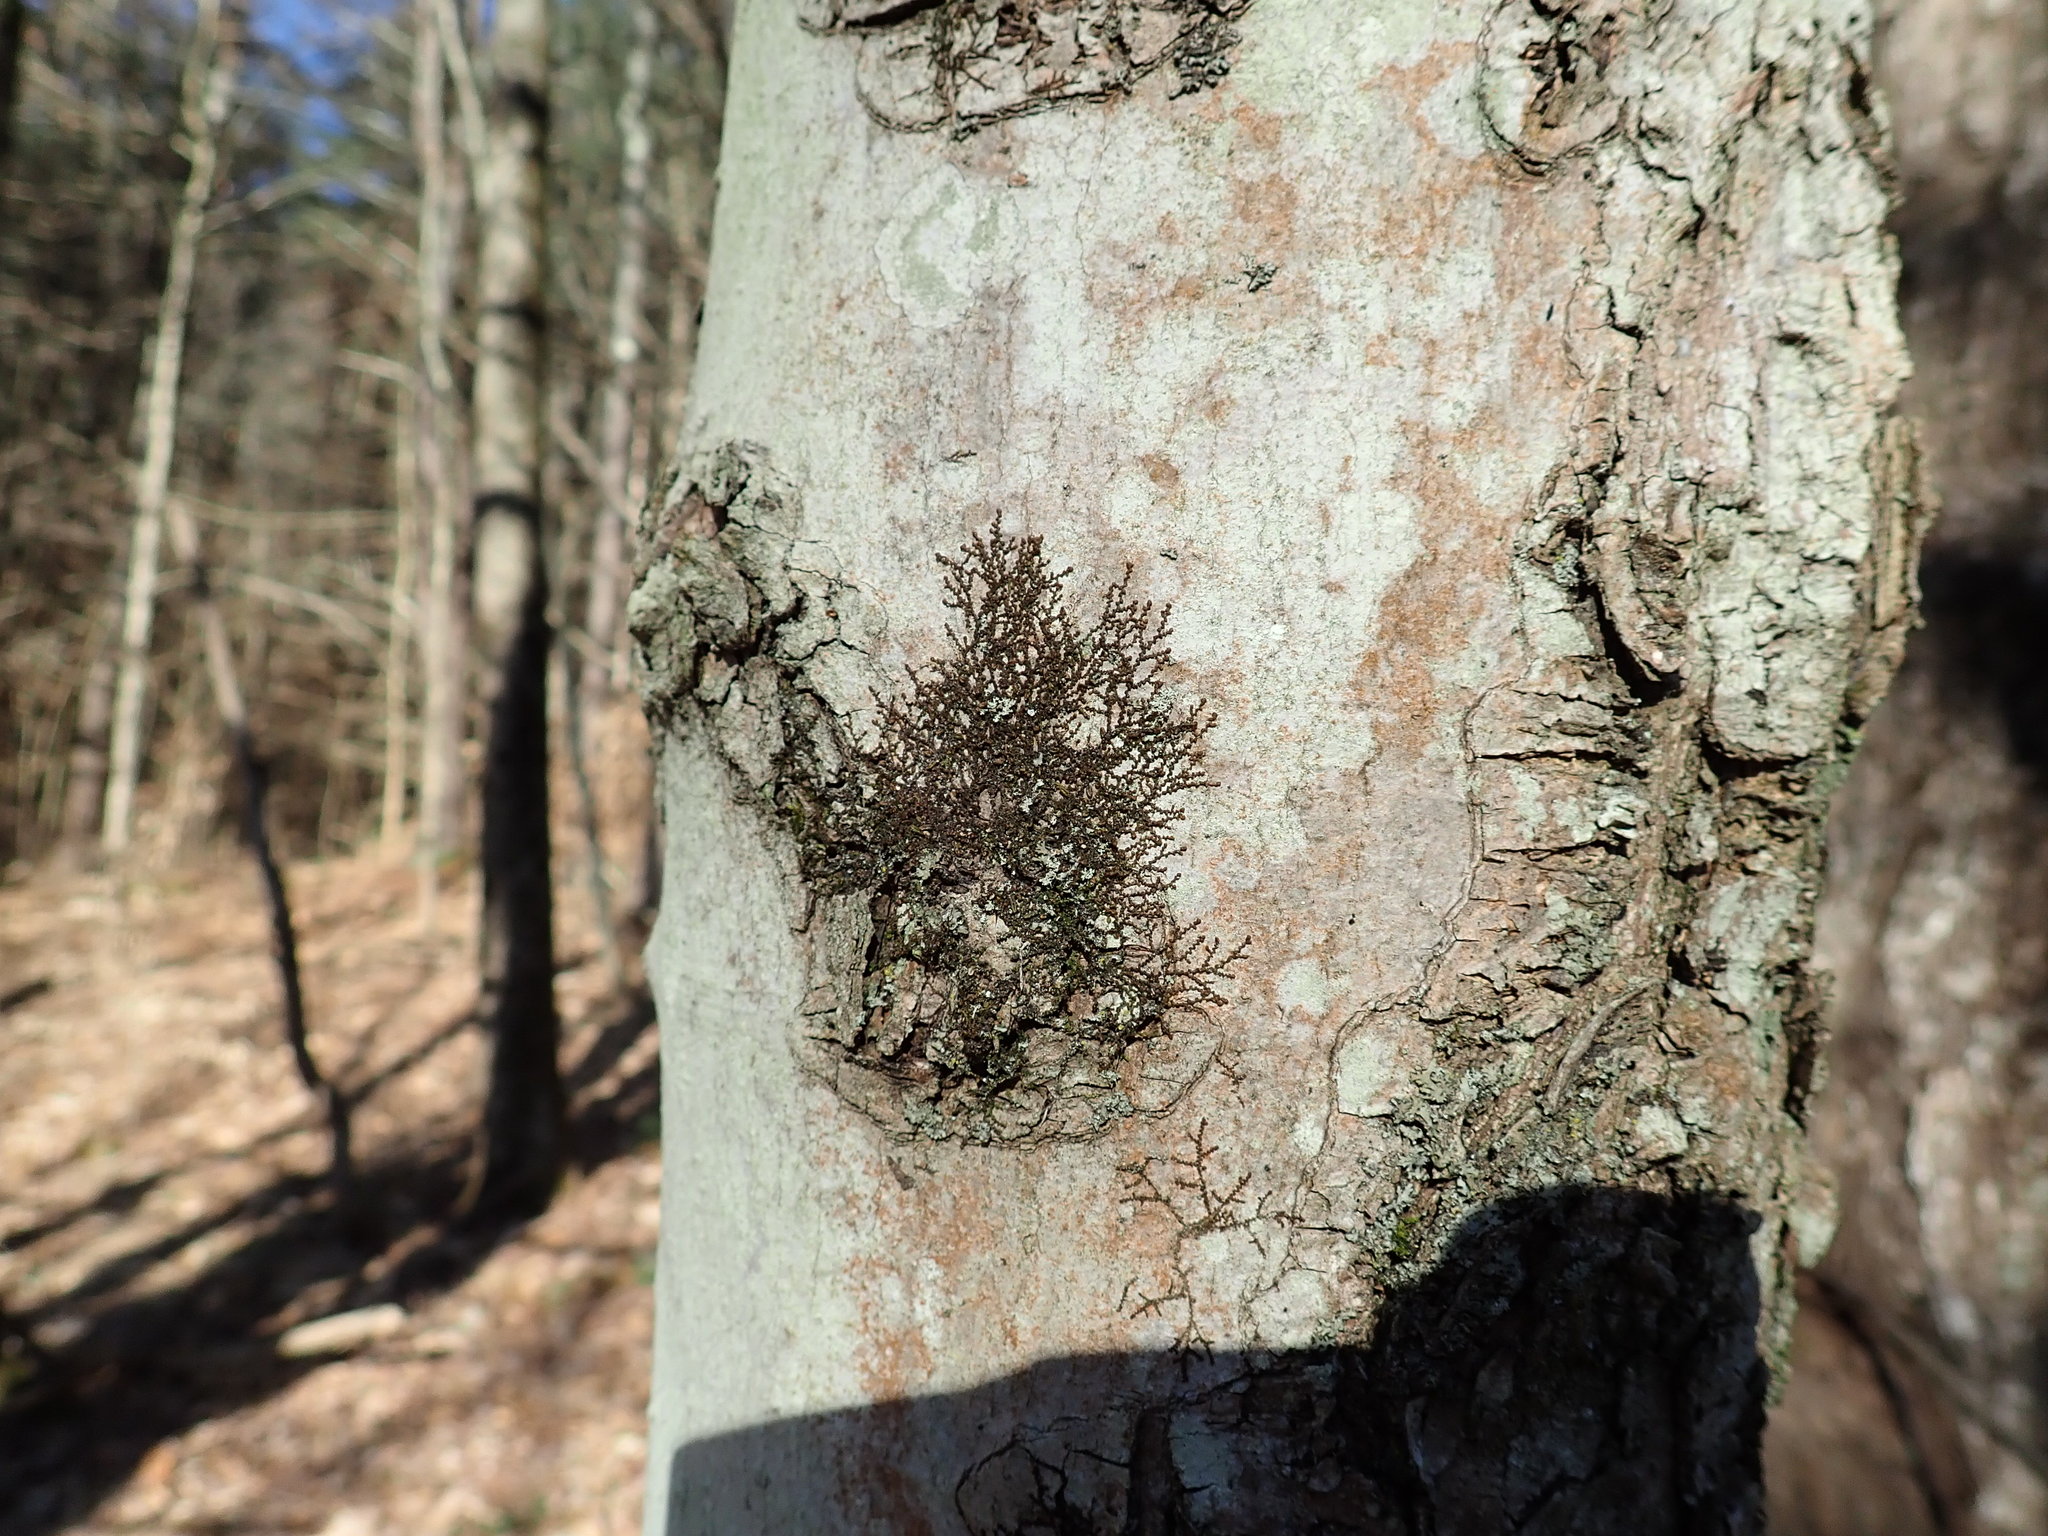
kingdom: Plantae
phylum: Marchantiophyta
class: Jungermanniopsida
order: Porellales
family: Frullaniaceae
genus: Frullania
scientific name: Frullania eboracensis
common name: New york scalewort
